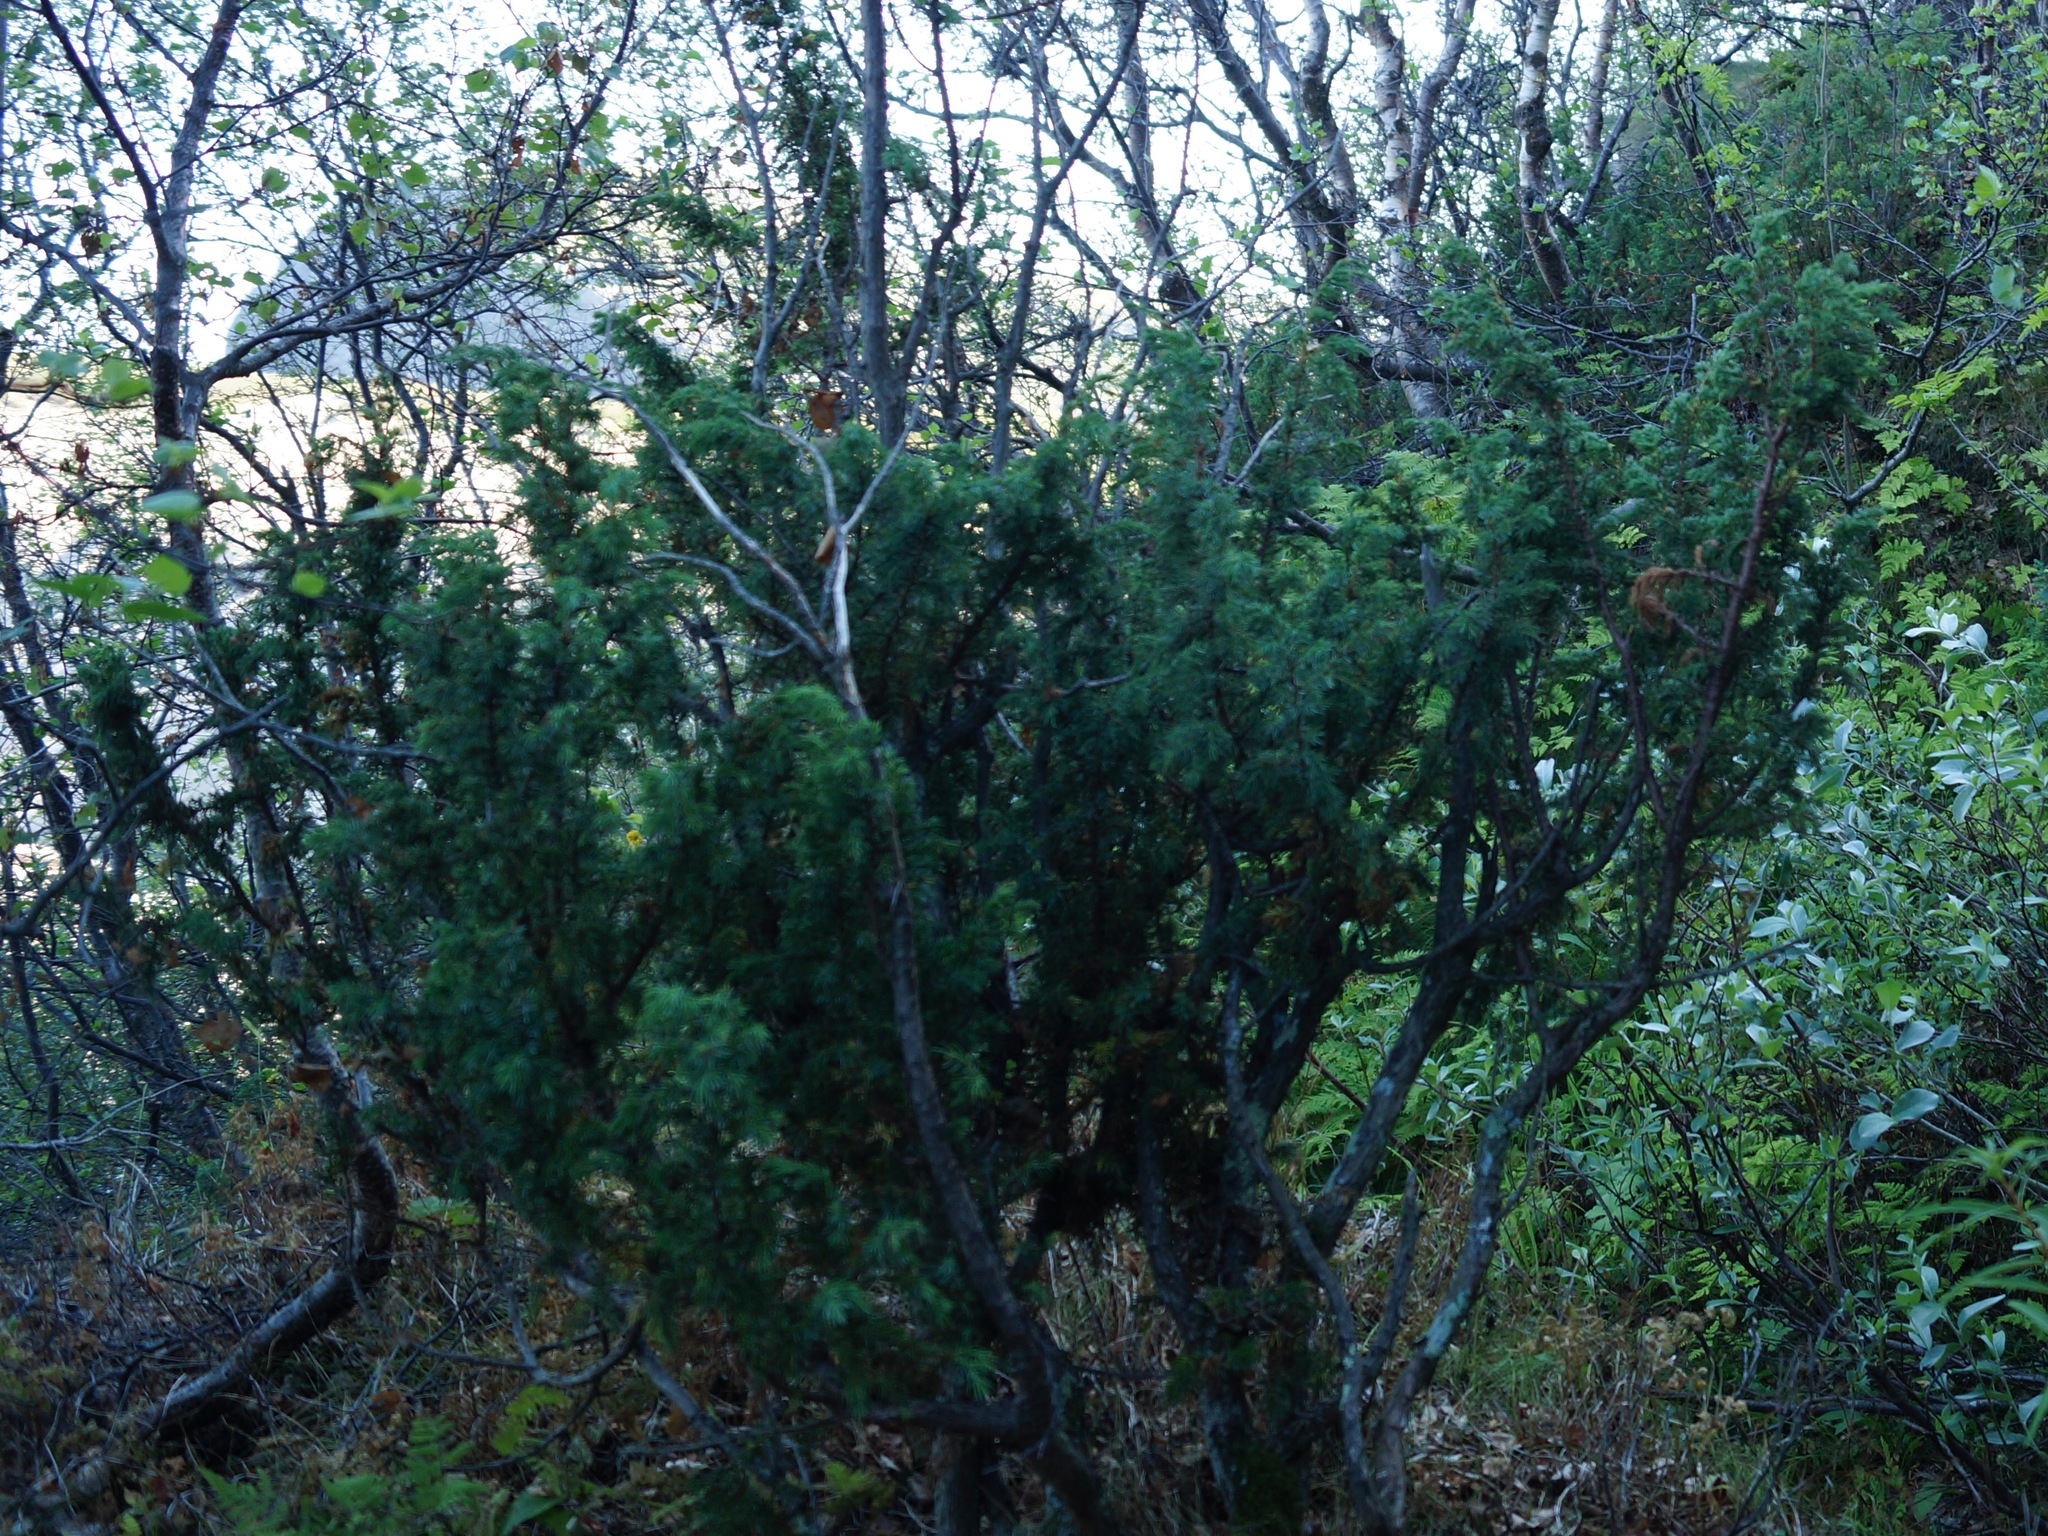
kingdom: Plantae
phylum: Tracheophyta
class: Pinopsida
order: Pinales
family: Cupressaceae
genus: Juniperus
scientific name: Juniperus communis
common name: Common juniper
